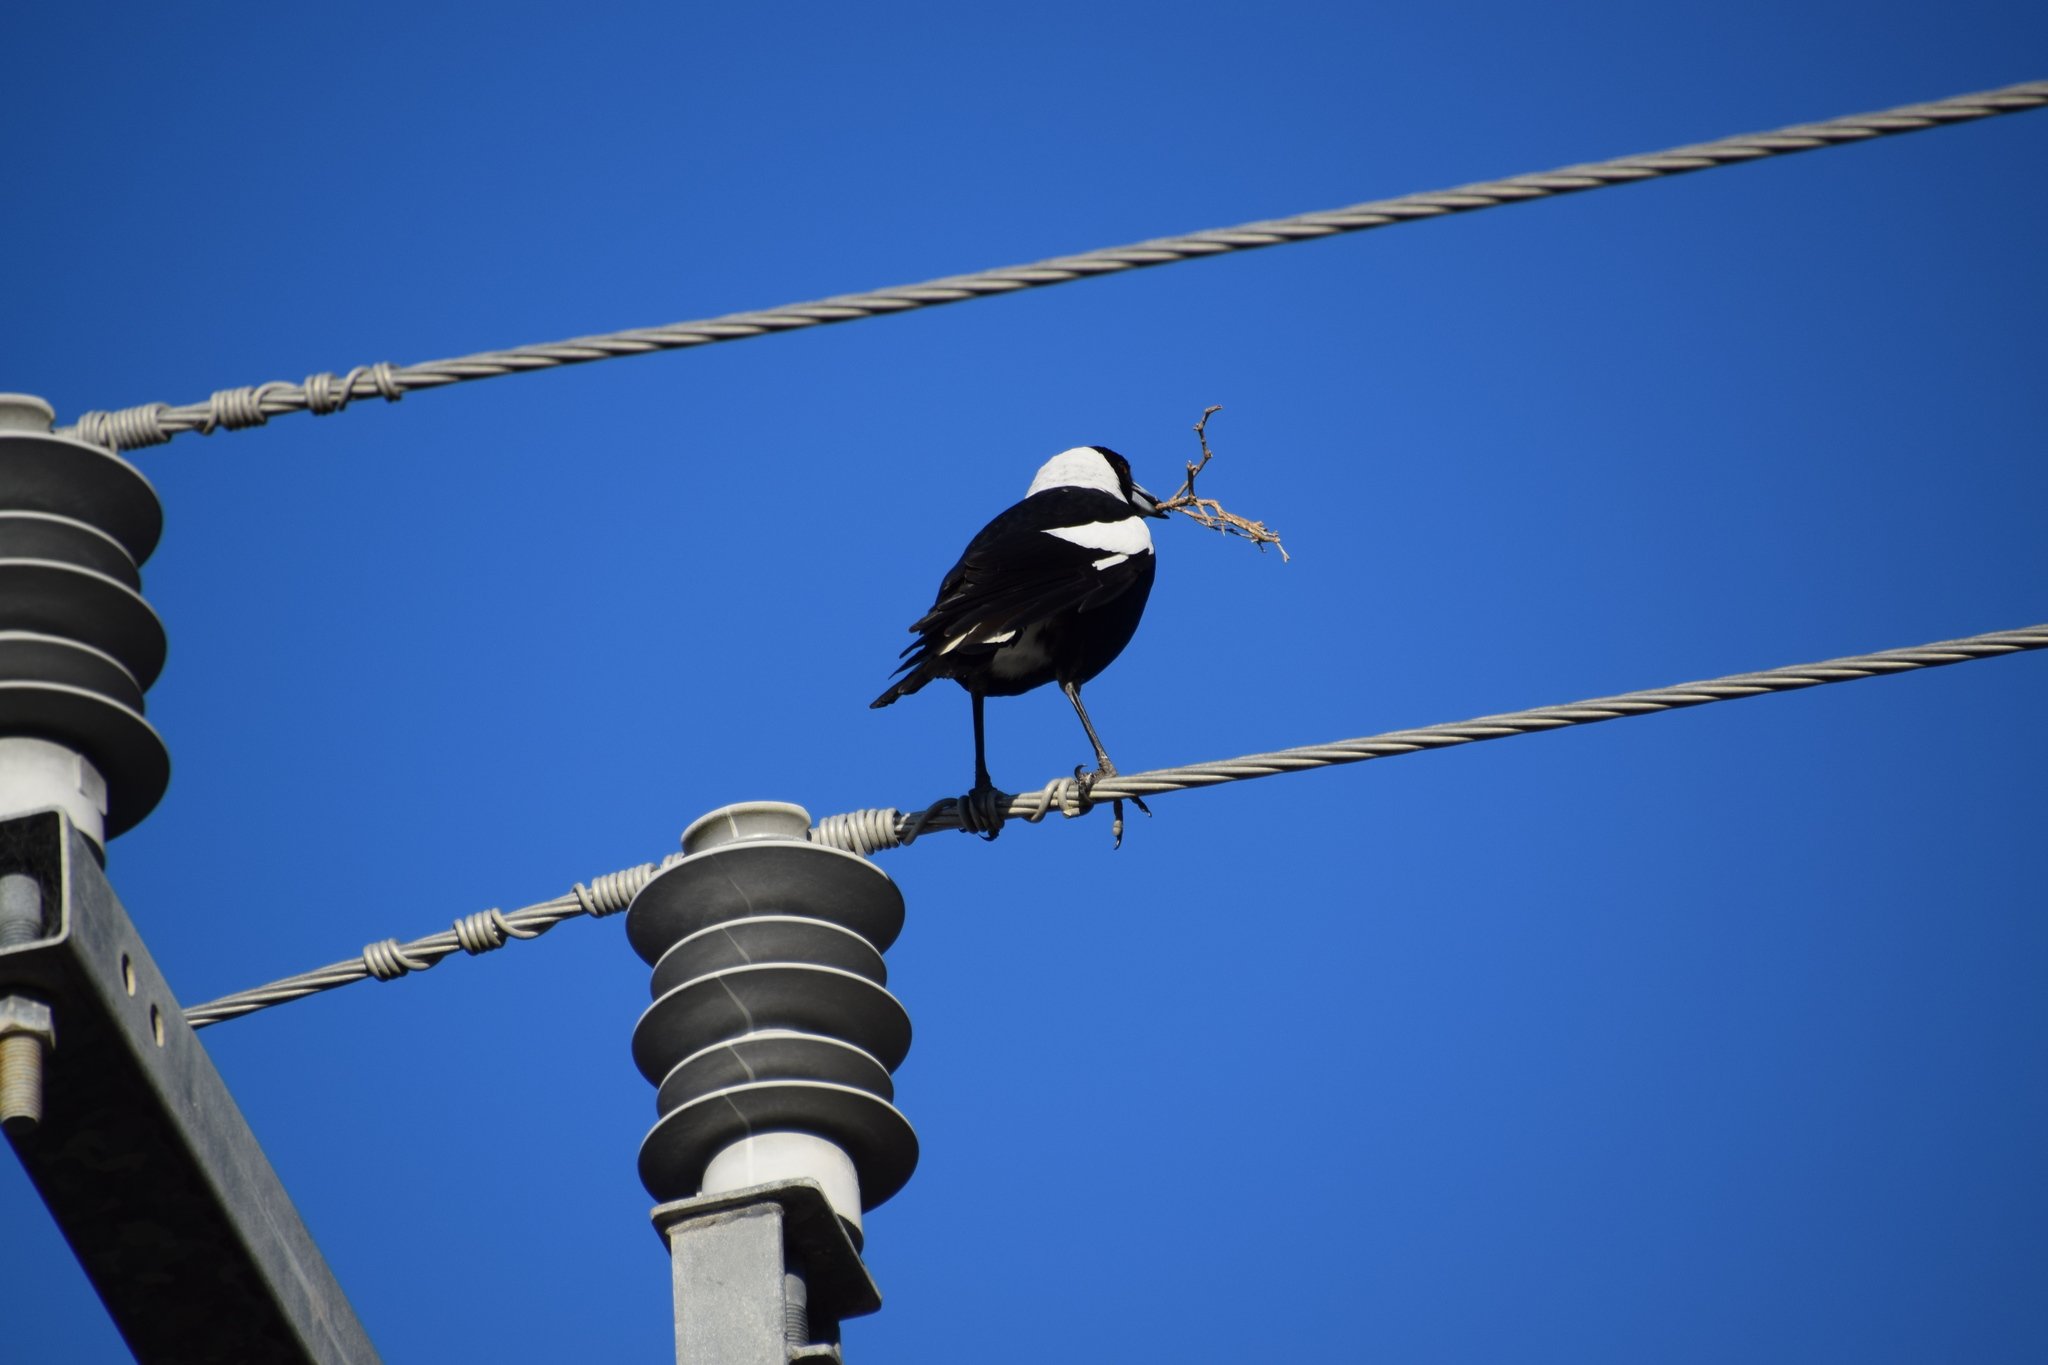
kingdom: Animalia
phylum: Chordata
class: Aves
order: Passeriformes
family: Cracticidae
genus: Gymnorhina
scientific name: Gymnorhina tibicen
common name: Australian magpie
